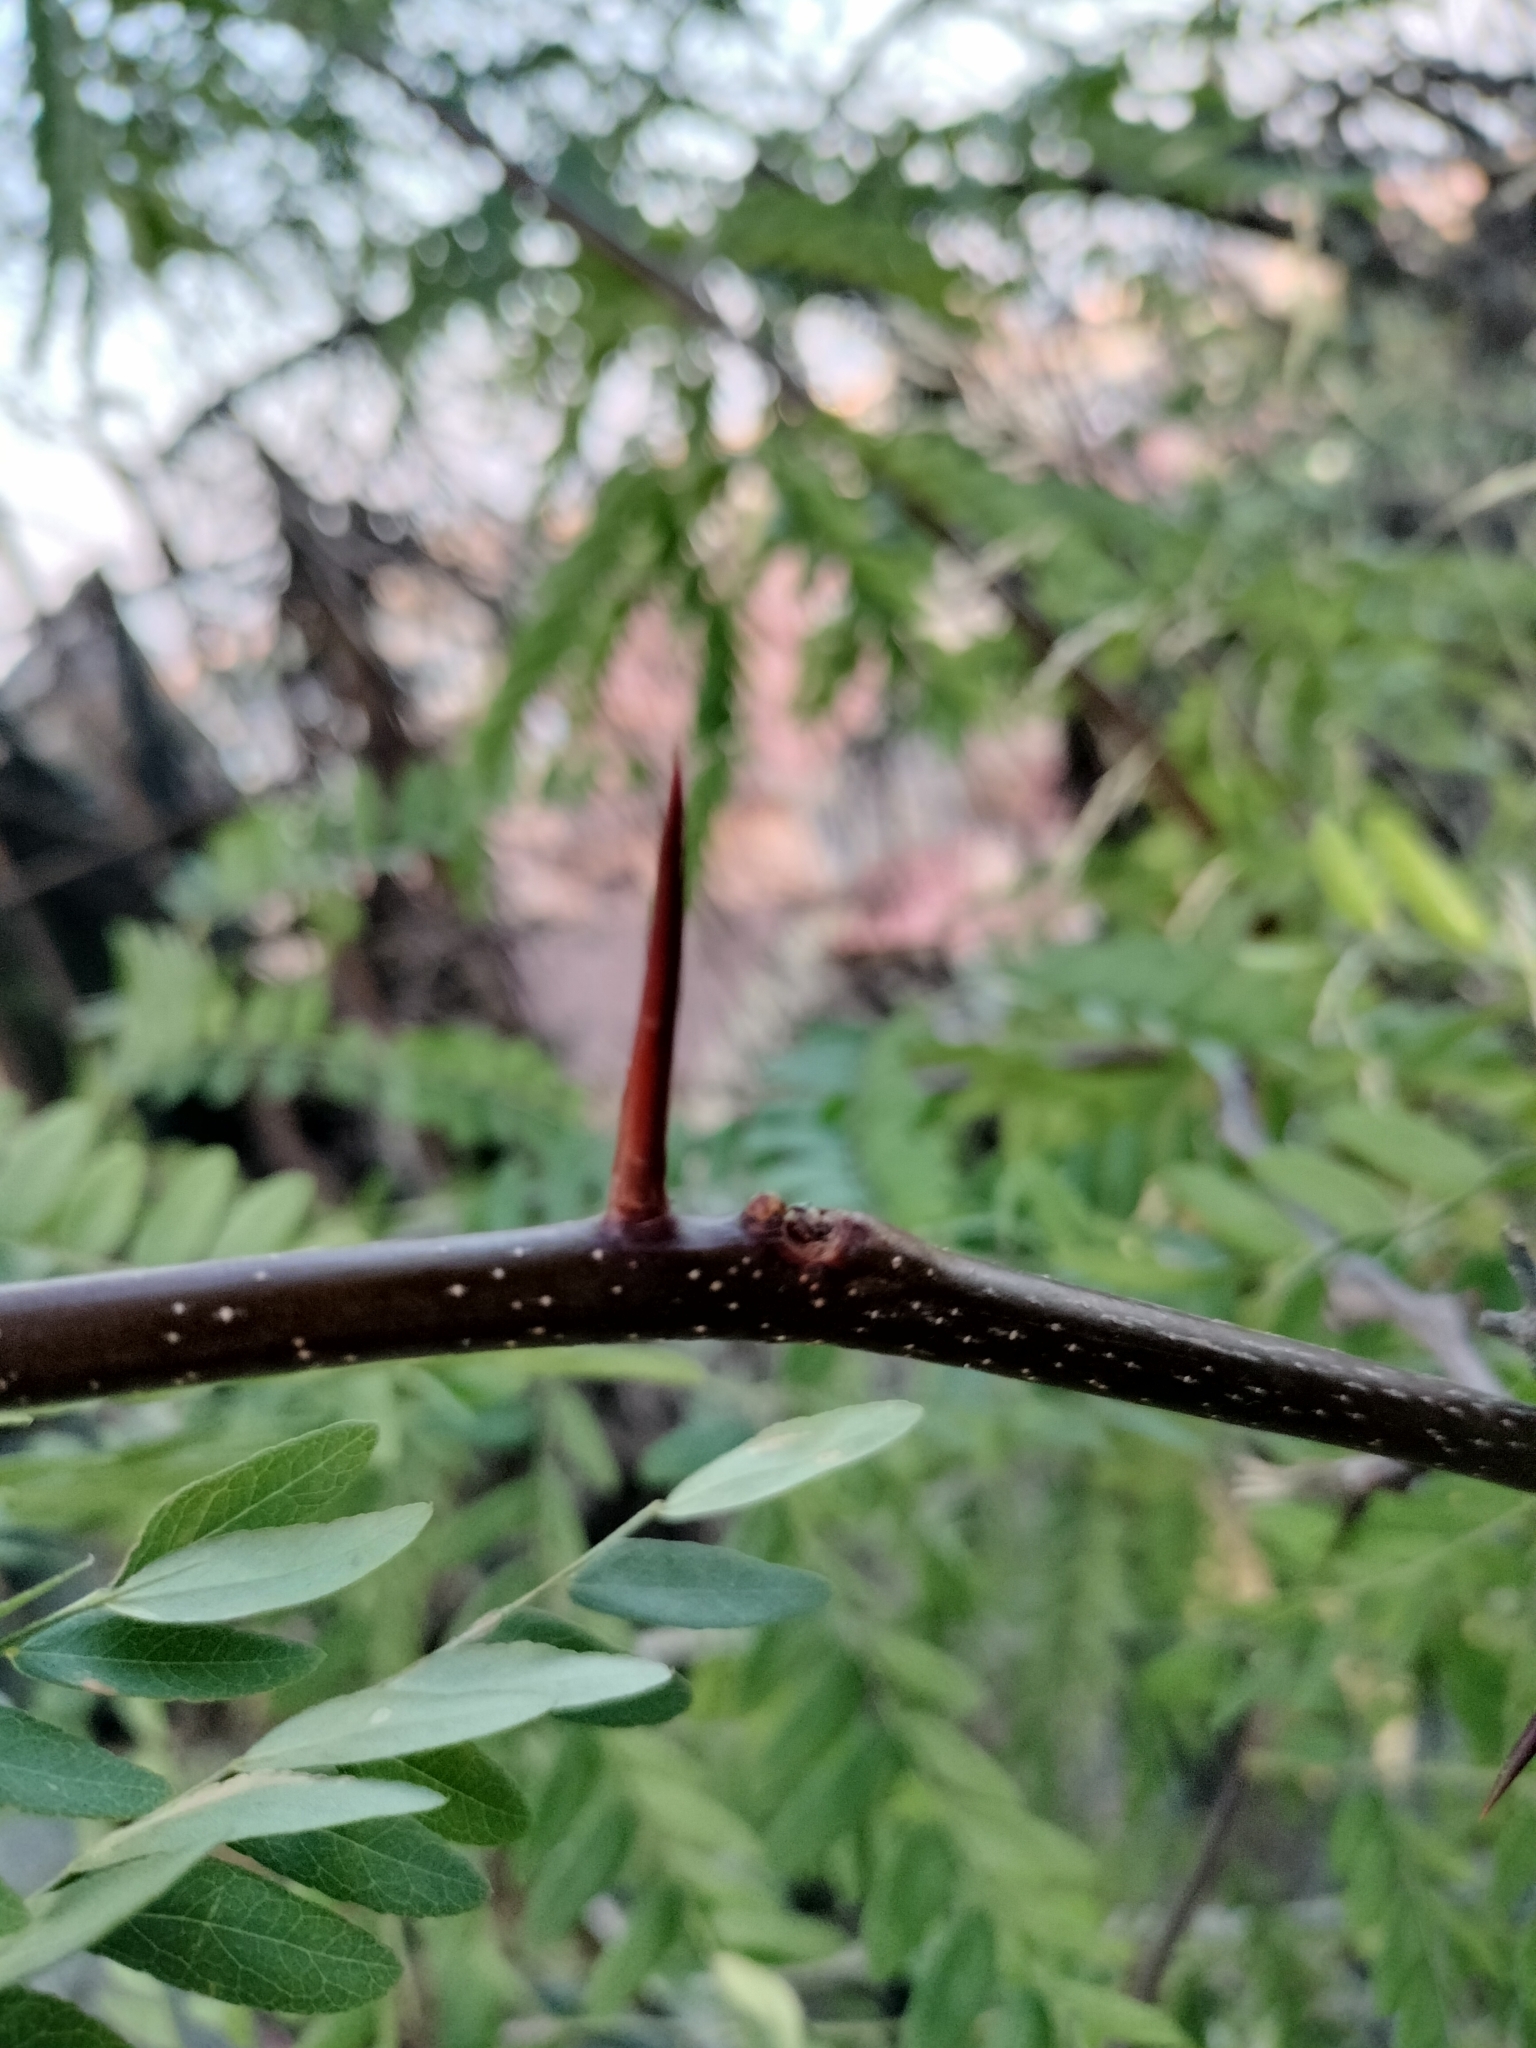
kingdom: Plantae
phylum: Tracheophyta
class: Magnoliopsida
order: Fabales
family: Fabaceae
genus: Gleditsia
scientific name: Gleditsia triacanthos
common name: Common honeylocust
